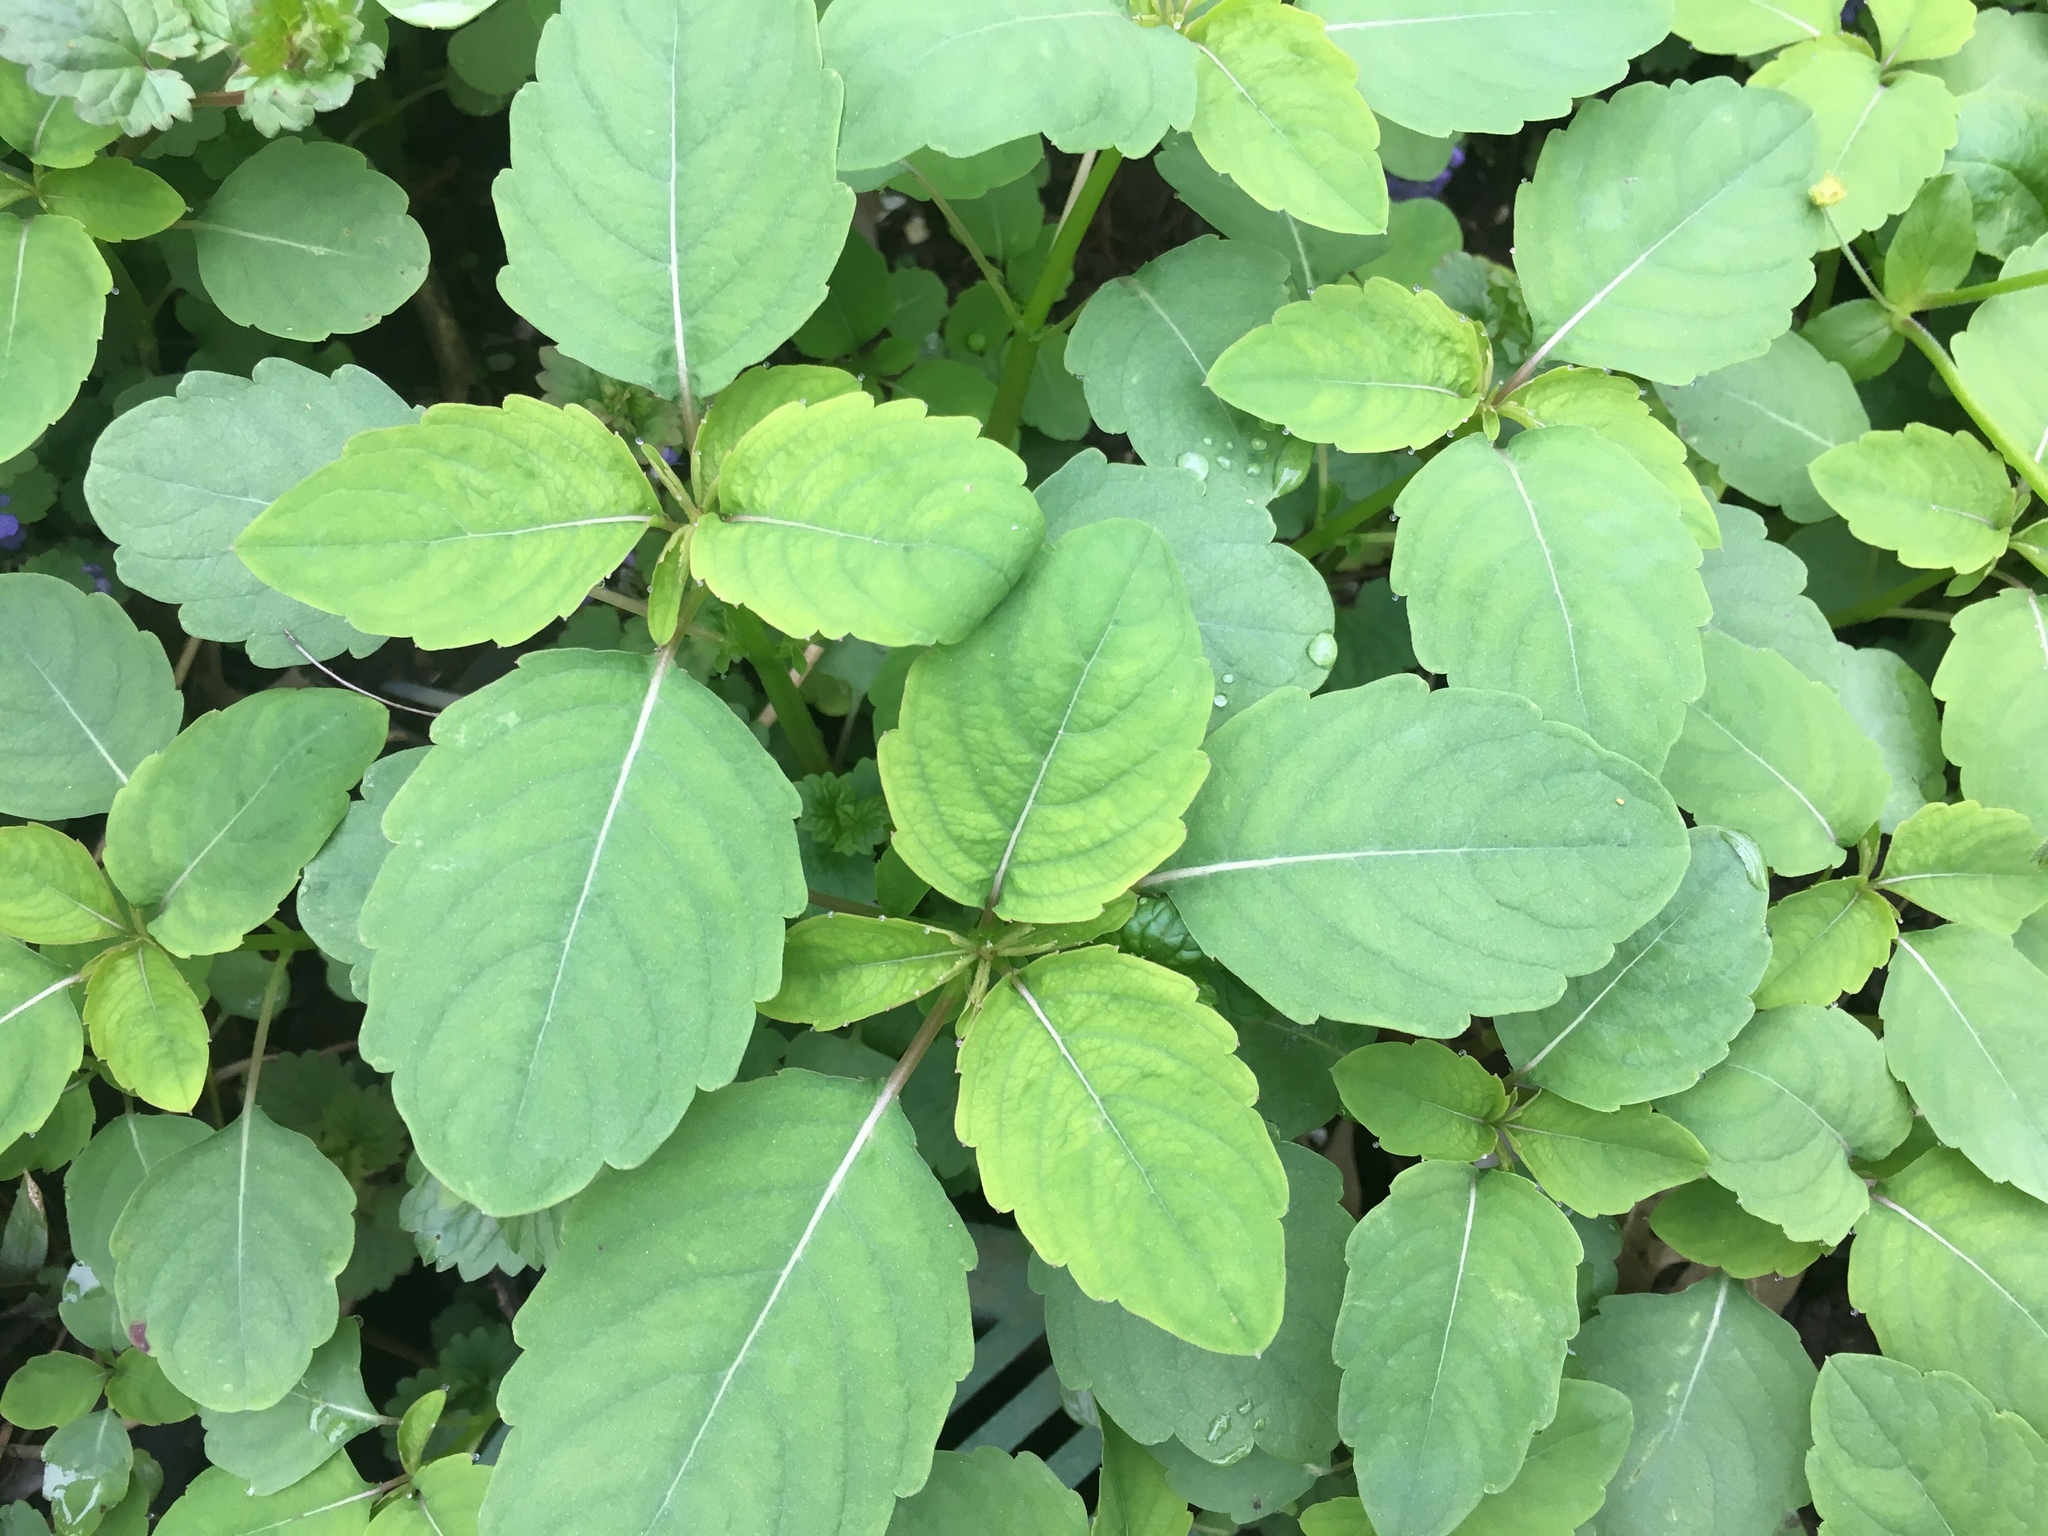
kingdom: Plantae
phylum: Tracheophyta
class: Magnoliopsida
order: Ericales
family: Balsaminaceae
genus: Impatiens
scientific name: Impatiens capensis
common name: Orange balsam
